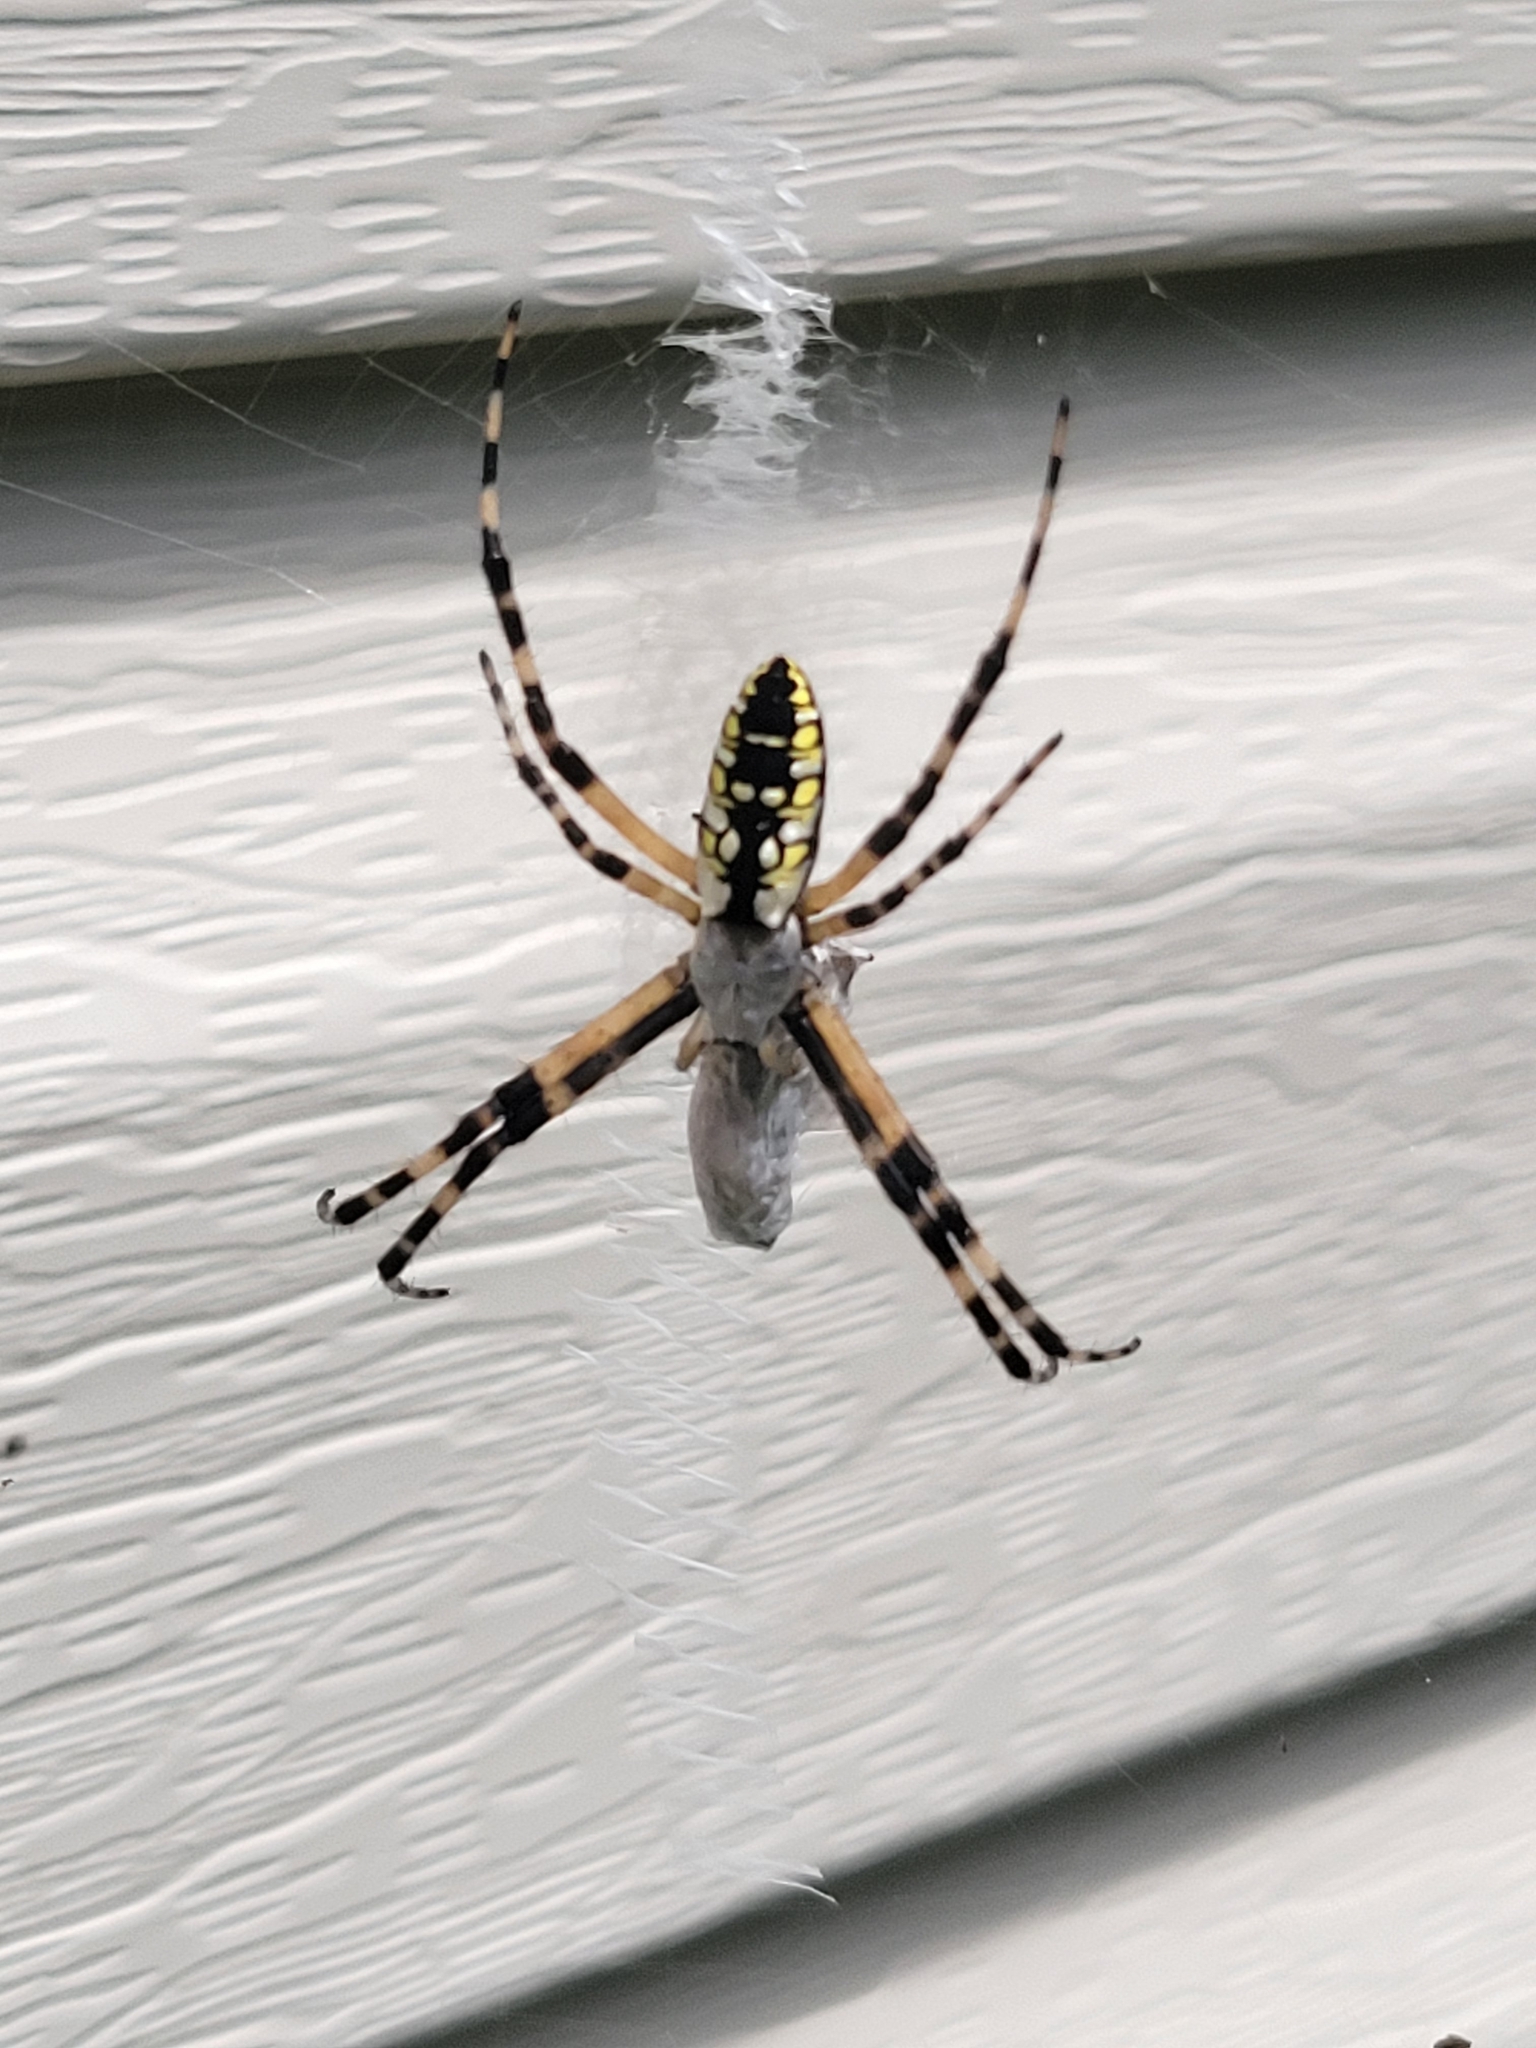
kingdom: Animalia
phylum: Arthropoda
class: Arachnida
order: Araneae
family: Araneidae
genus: Argiope
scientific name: Argiope aurantia
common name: Orb weavers
